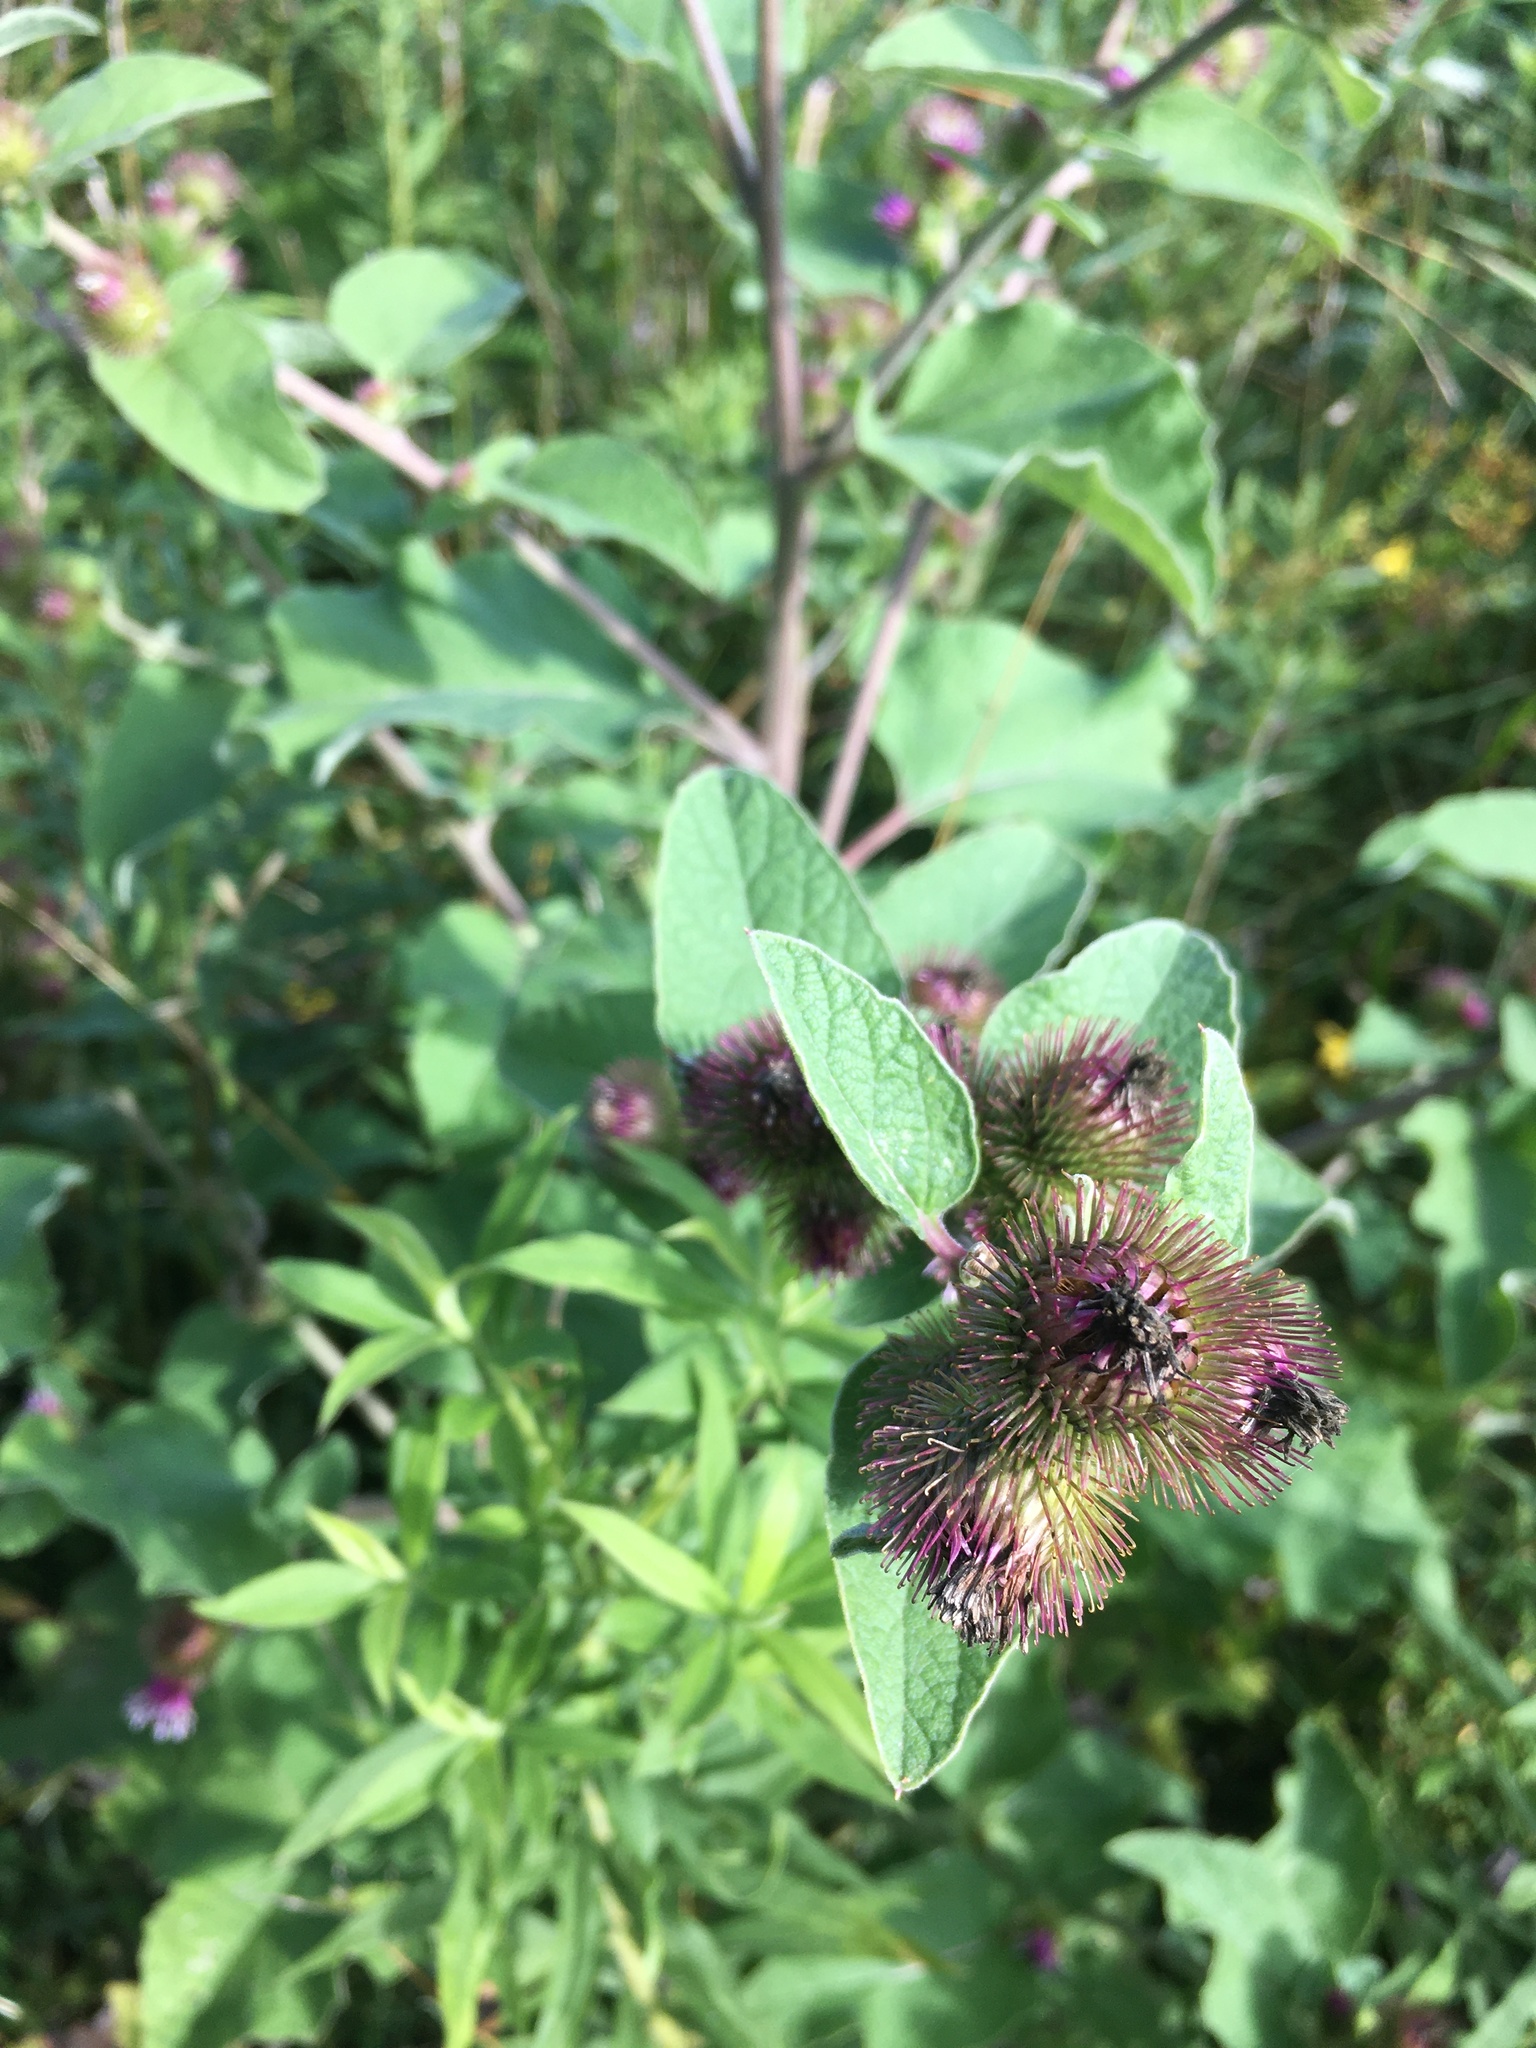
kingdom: Plantae
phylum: Tracheophyta
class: Magnoliopsida
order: Asterales
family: Asteraceae
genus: Arctium
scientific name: Arctium minus
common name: Lesser burdock
